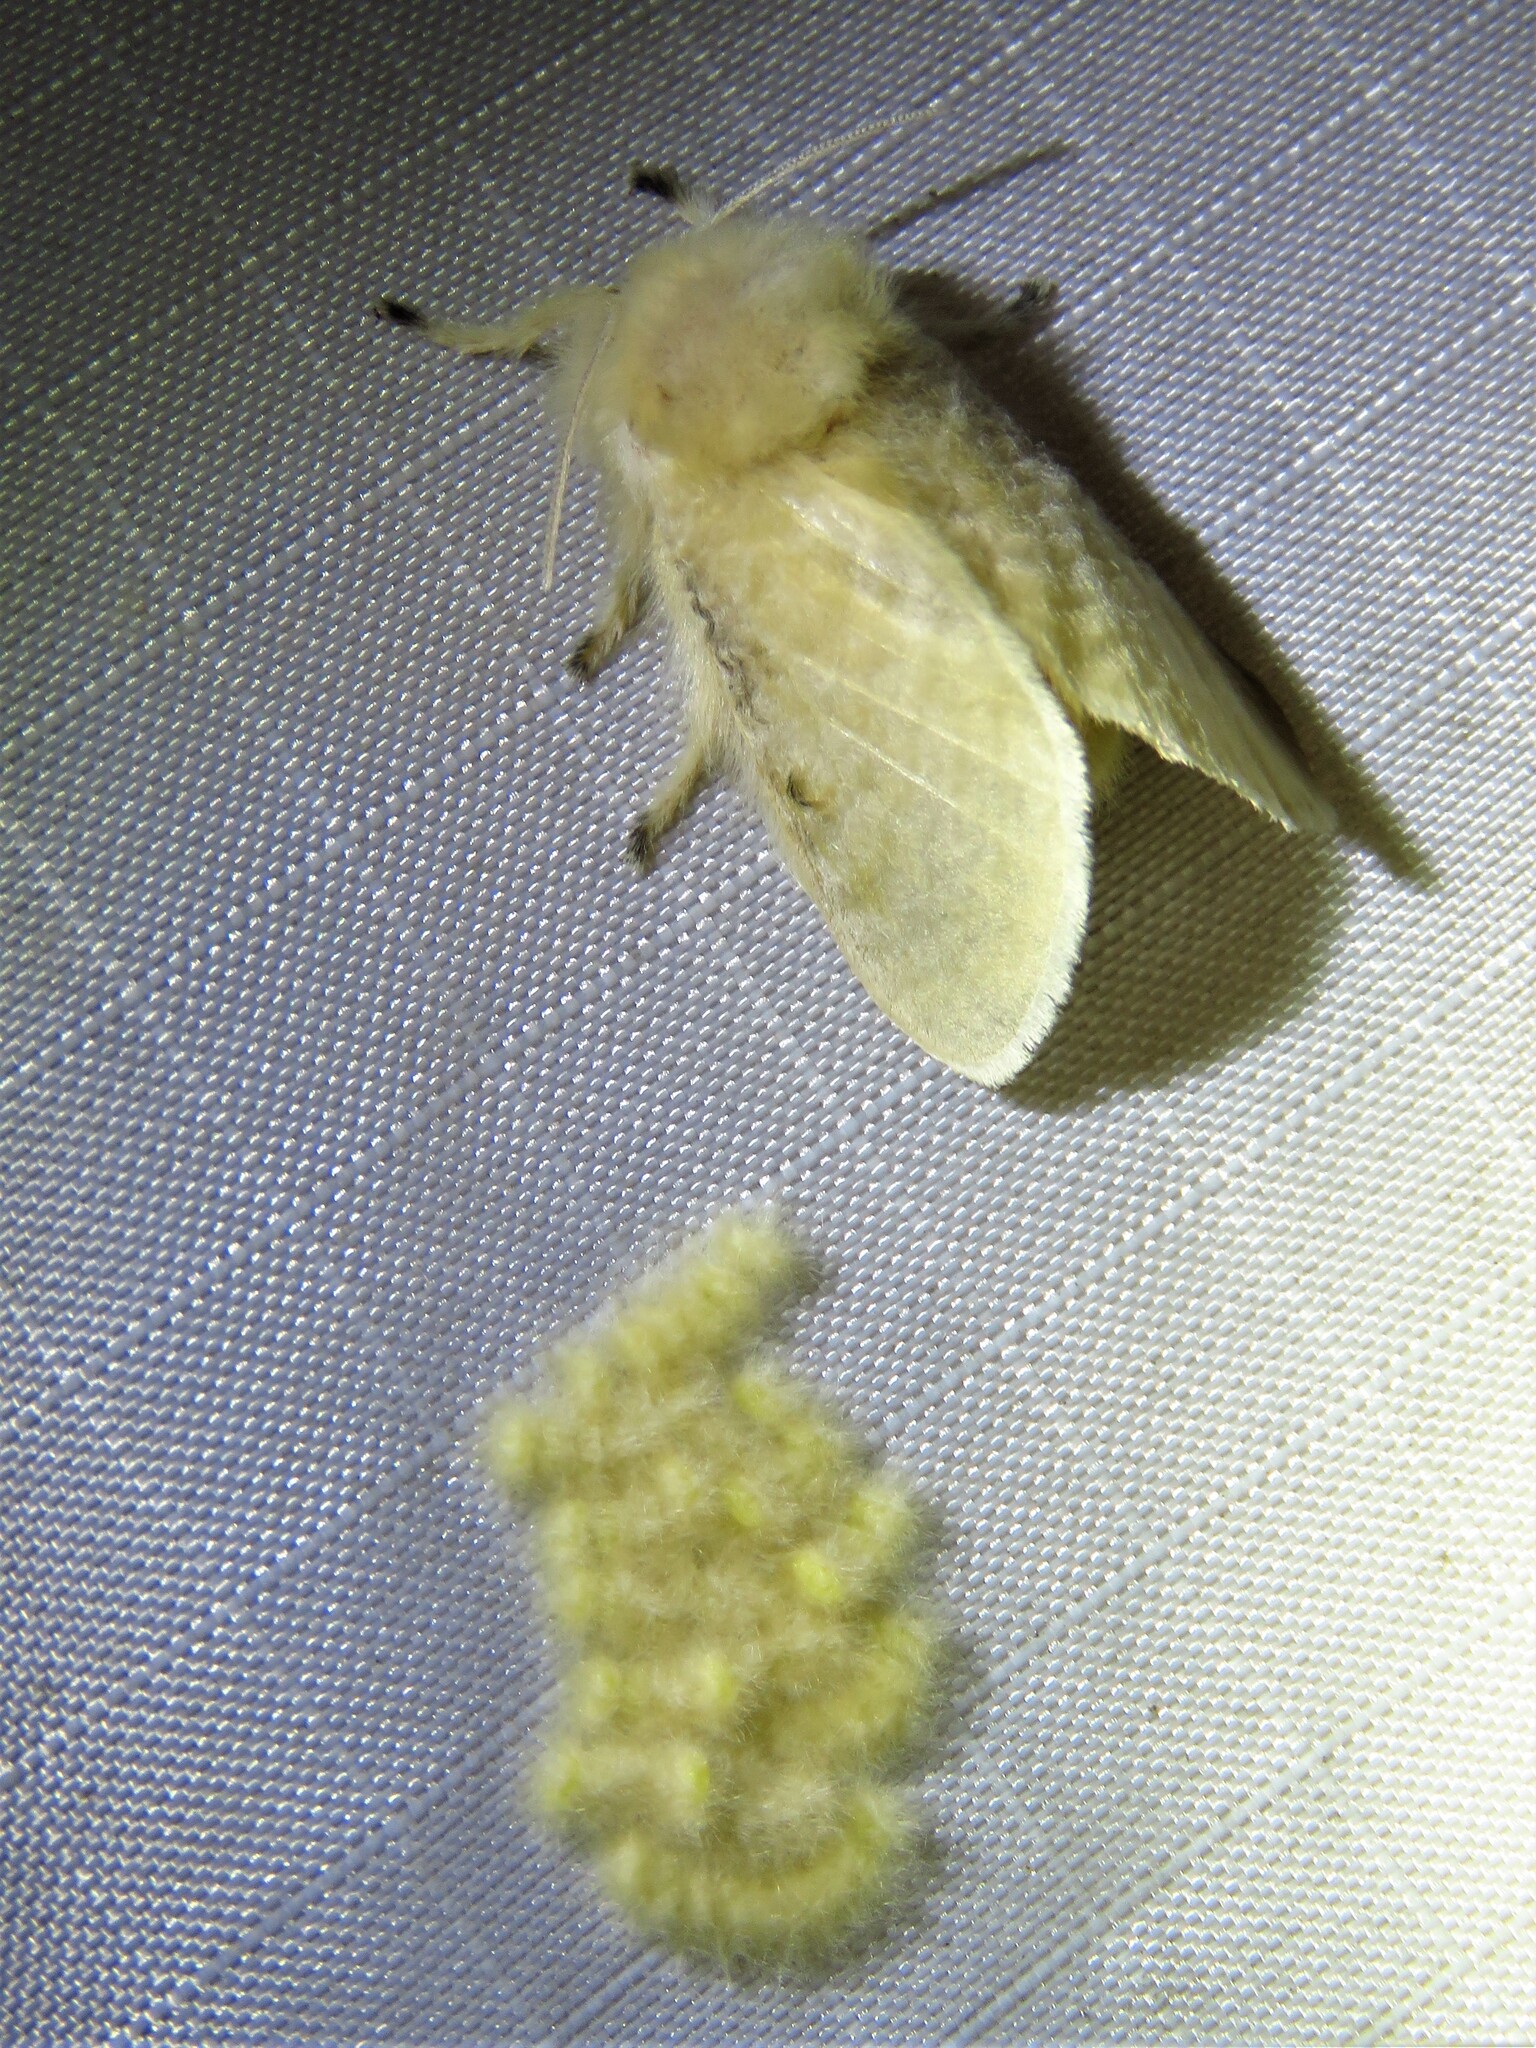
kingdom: Animalia
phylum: Arthropoda
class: Insecta
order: Lepidoptera
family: Megalopygidae
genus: Megalopyge
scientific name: Megalopyge crispata
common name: Black-waved flannel moth
